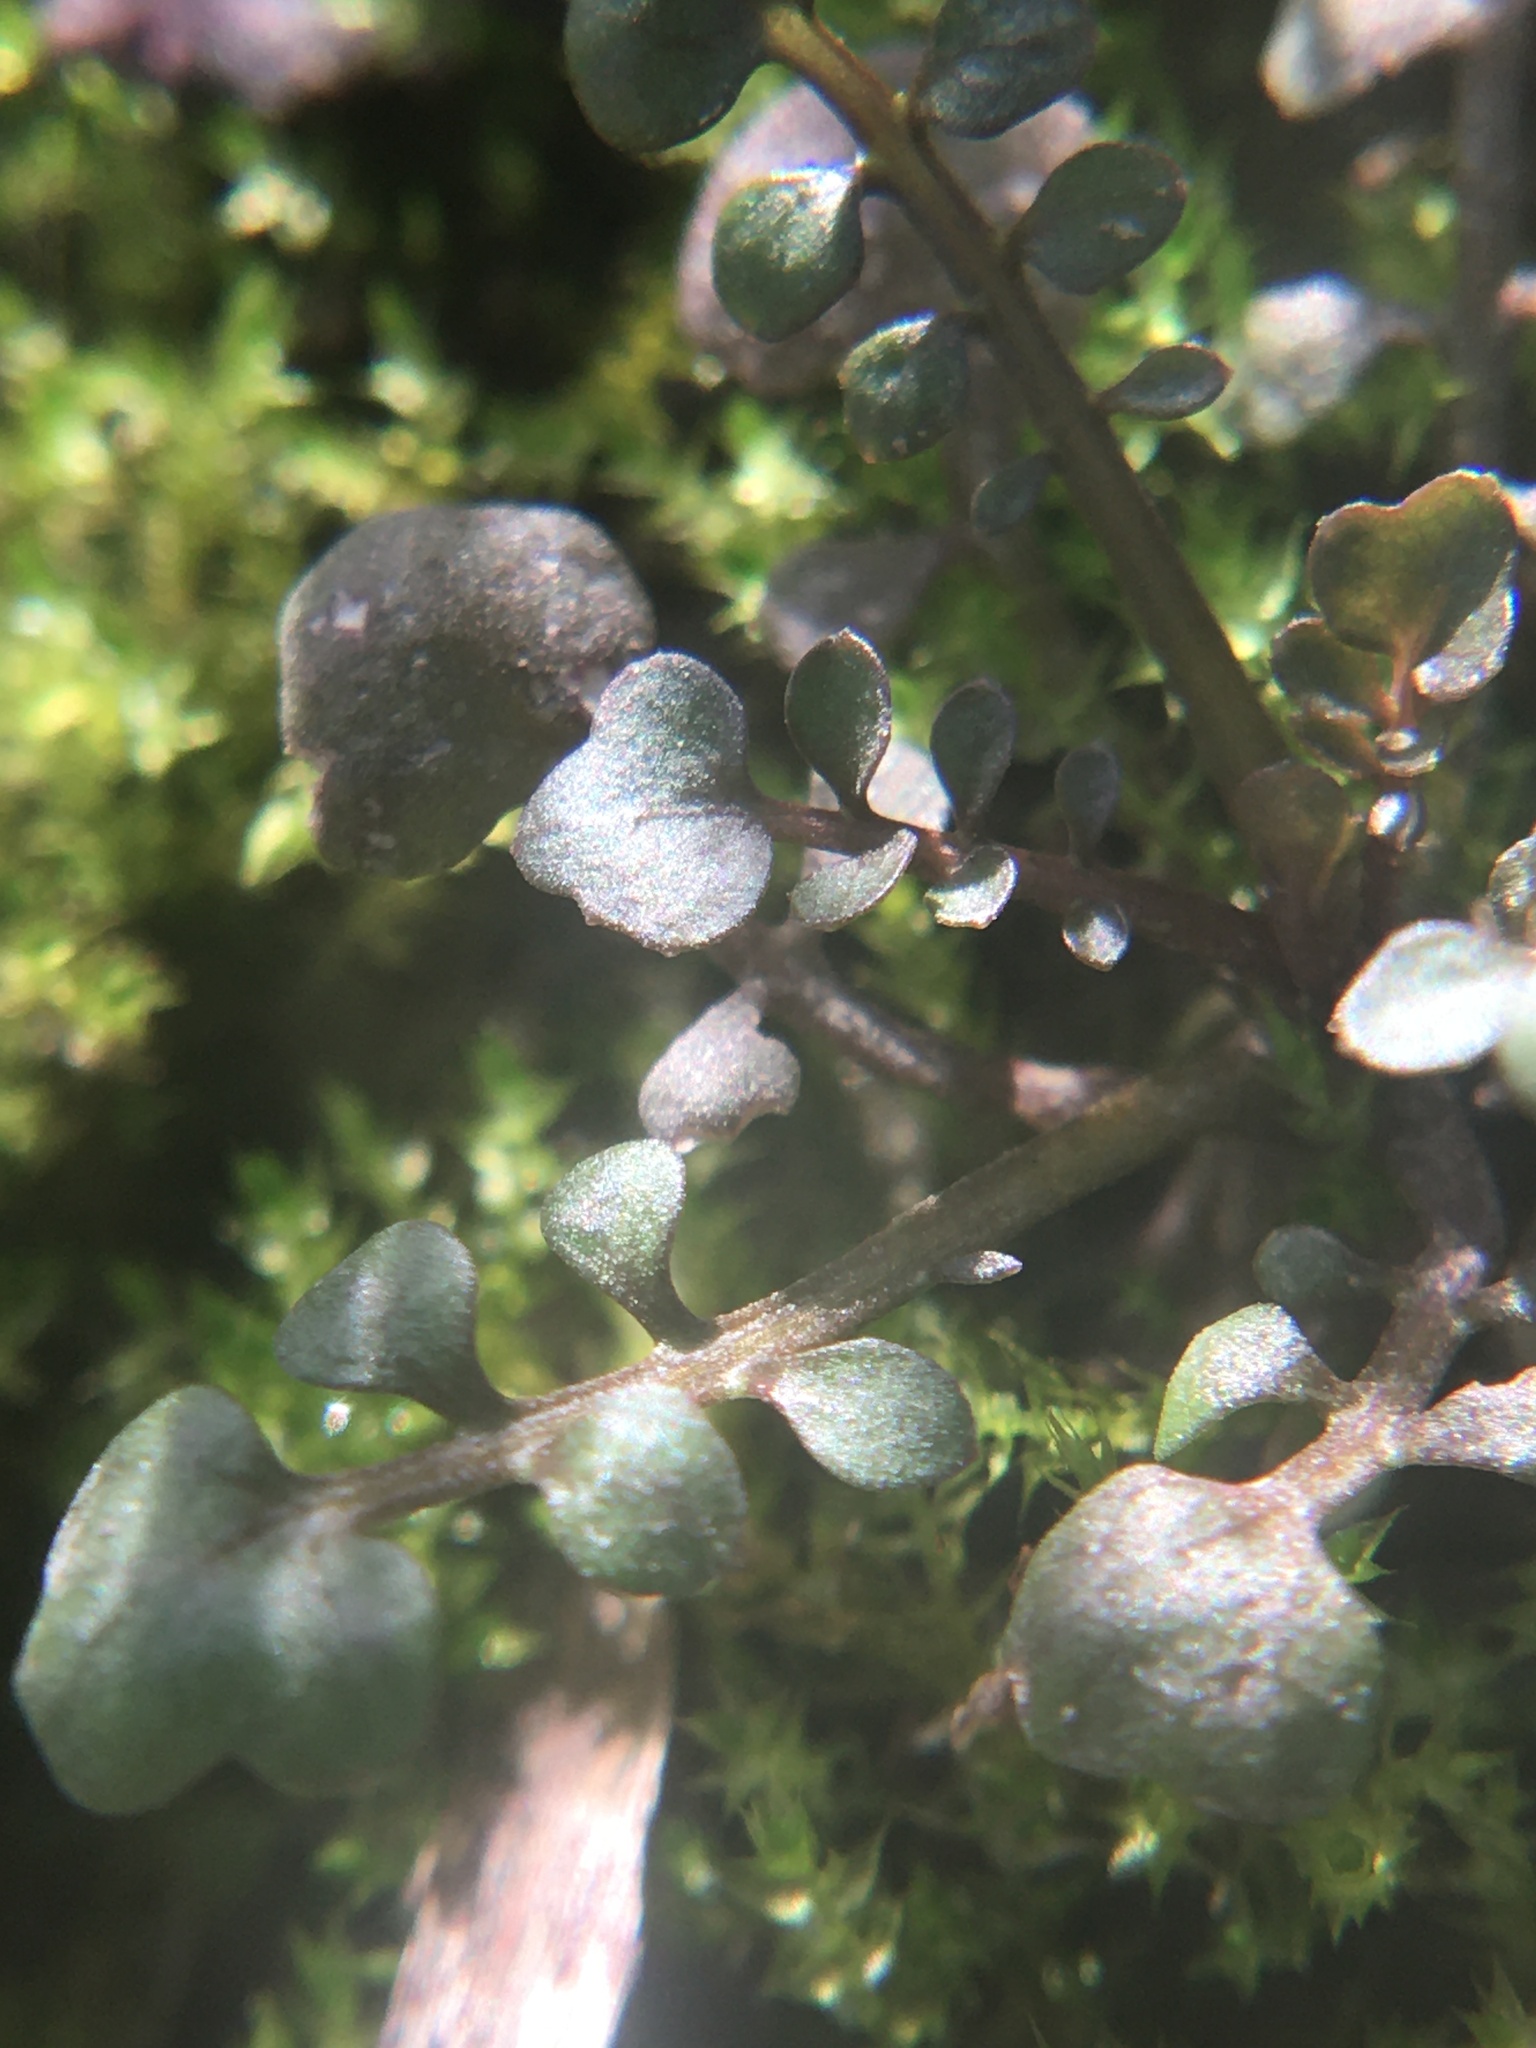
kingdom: Plantae
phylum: Tracheophyta
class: Magnoliopsida
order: Brassicales
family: Brassicaceae
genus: Cardamine
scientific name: Cardamine parviflora
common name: Sand bittercress
